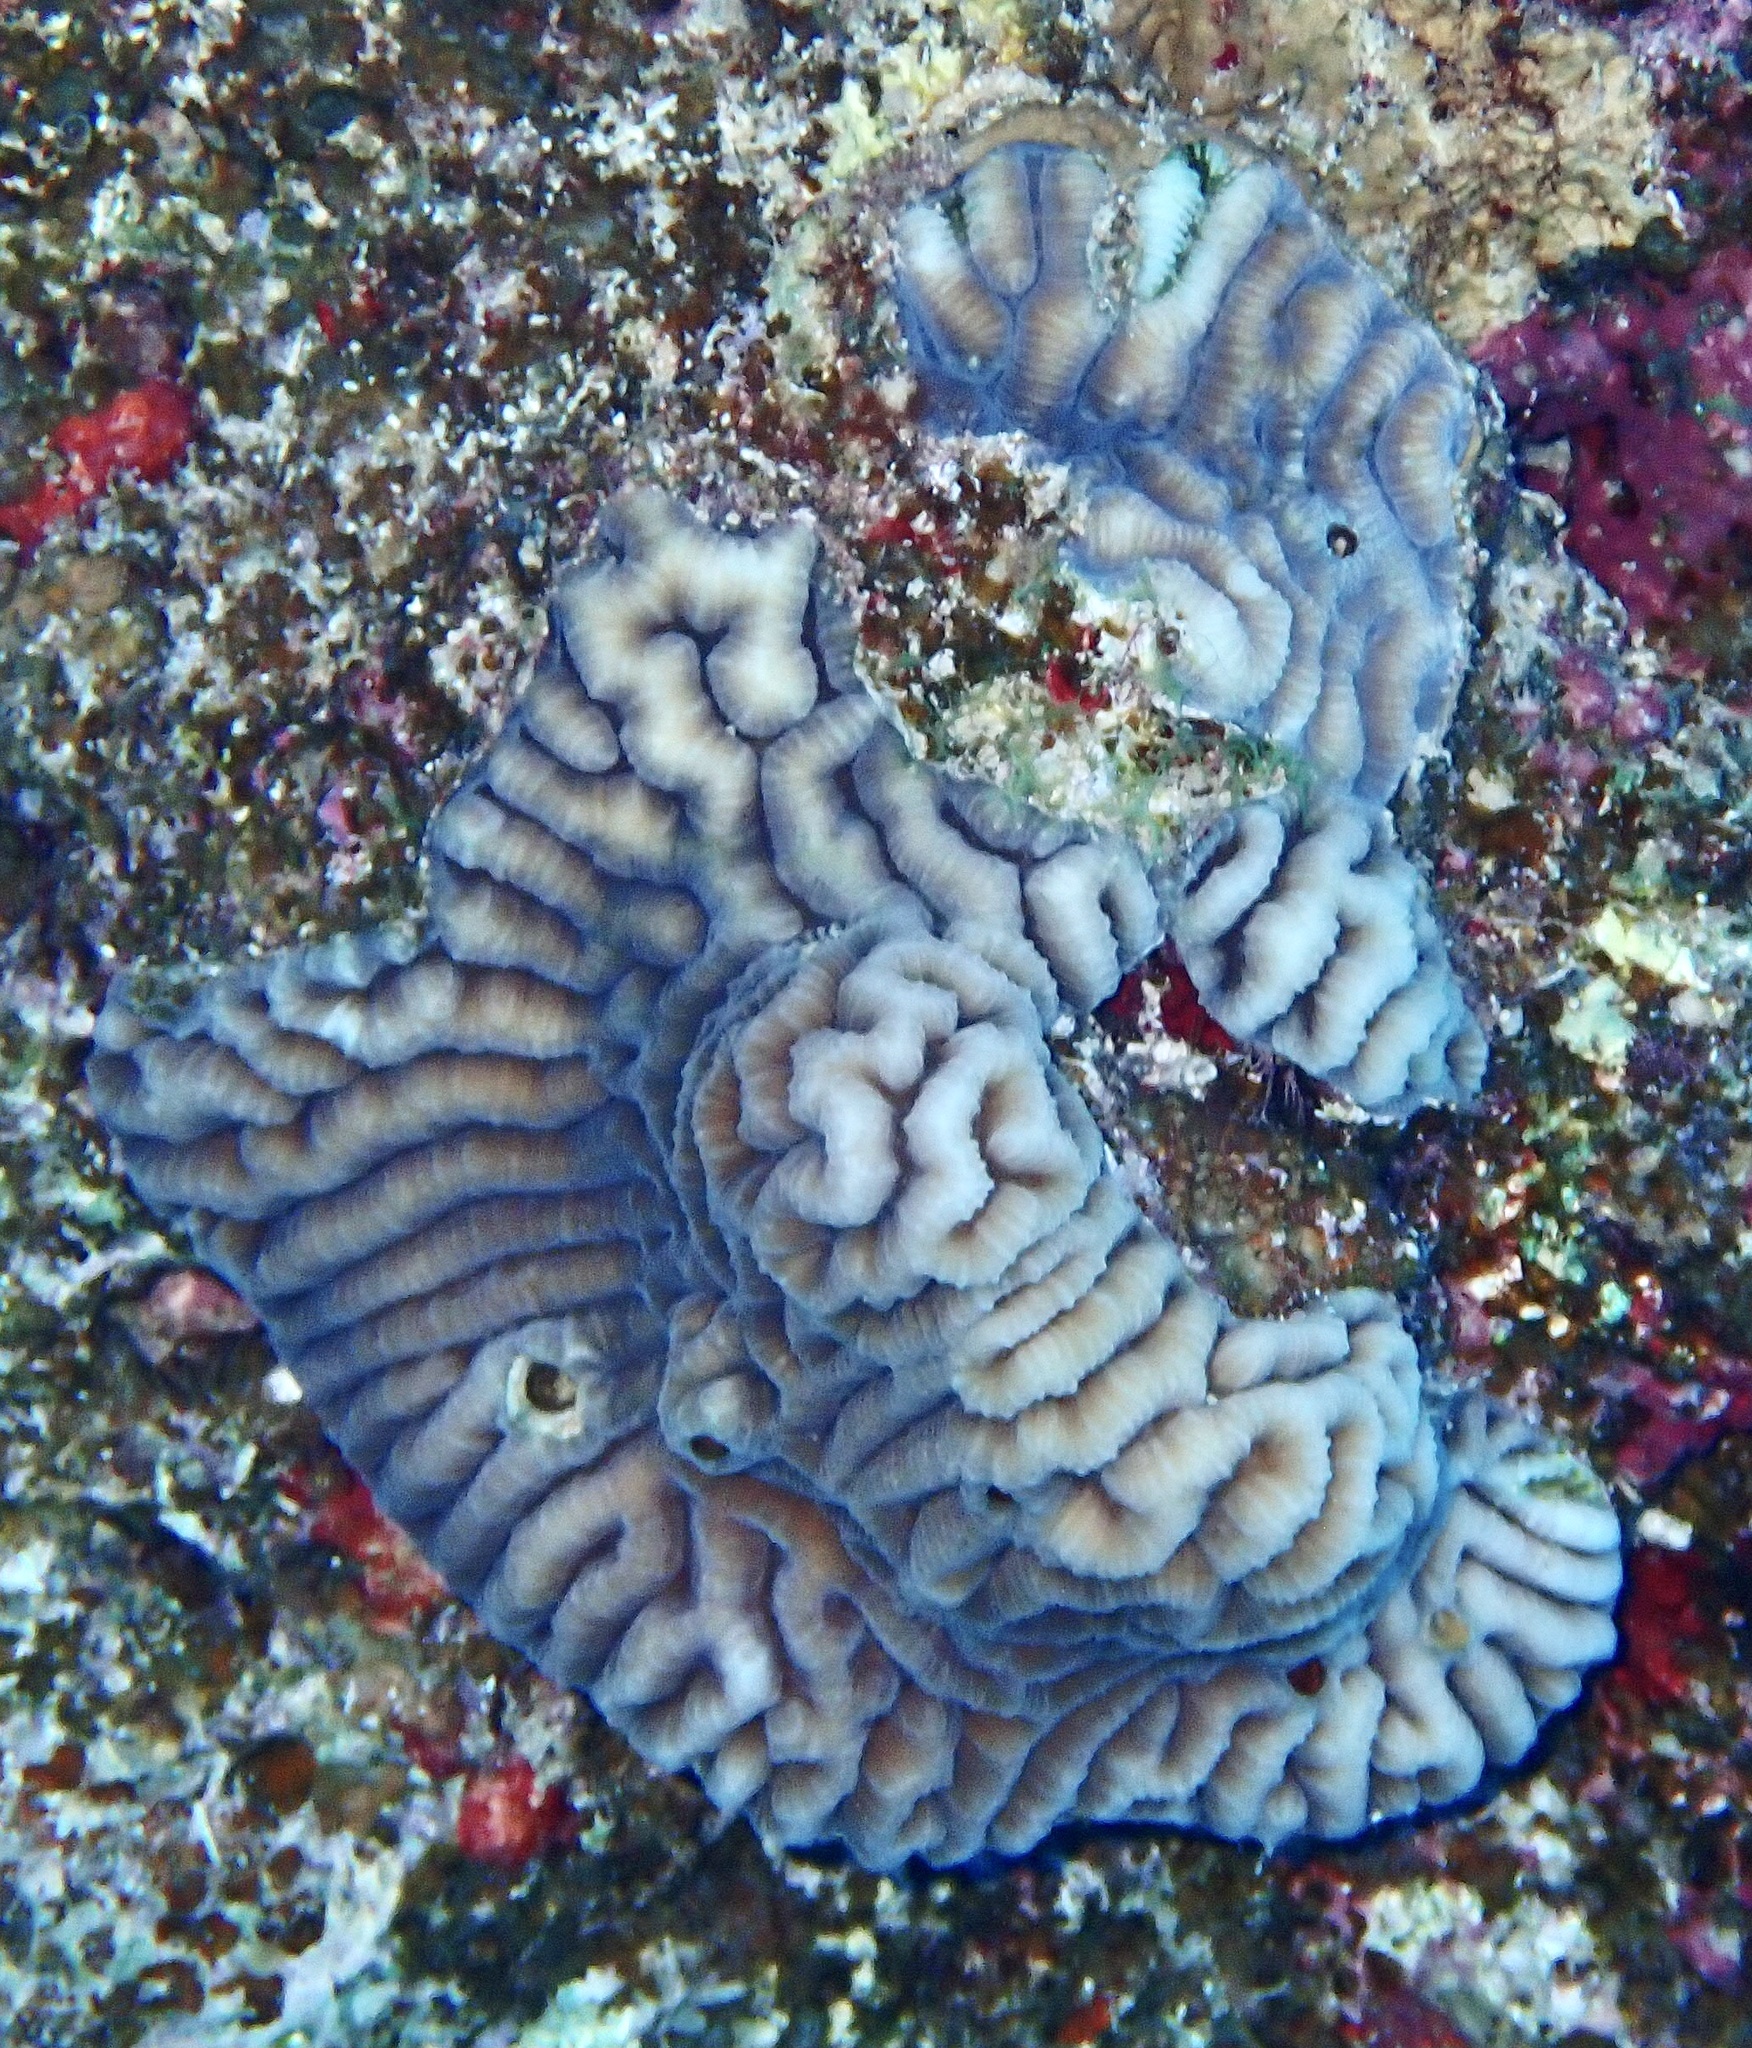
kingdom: Animalia
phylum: Cnidaria
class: Anthozoa
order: Scleractinia
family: Merulinidae
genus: Platygyra
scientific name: Platygyra
